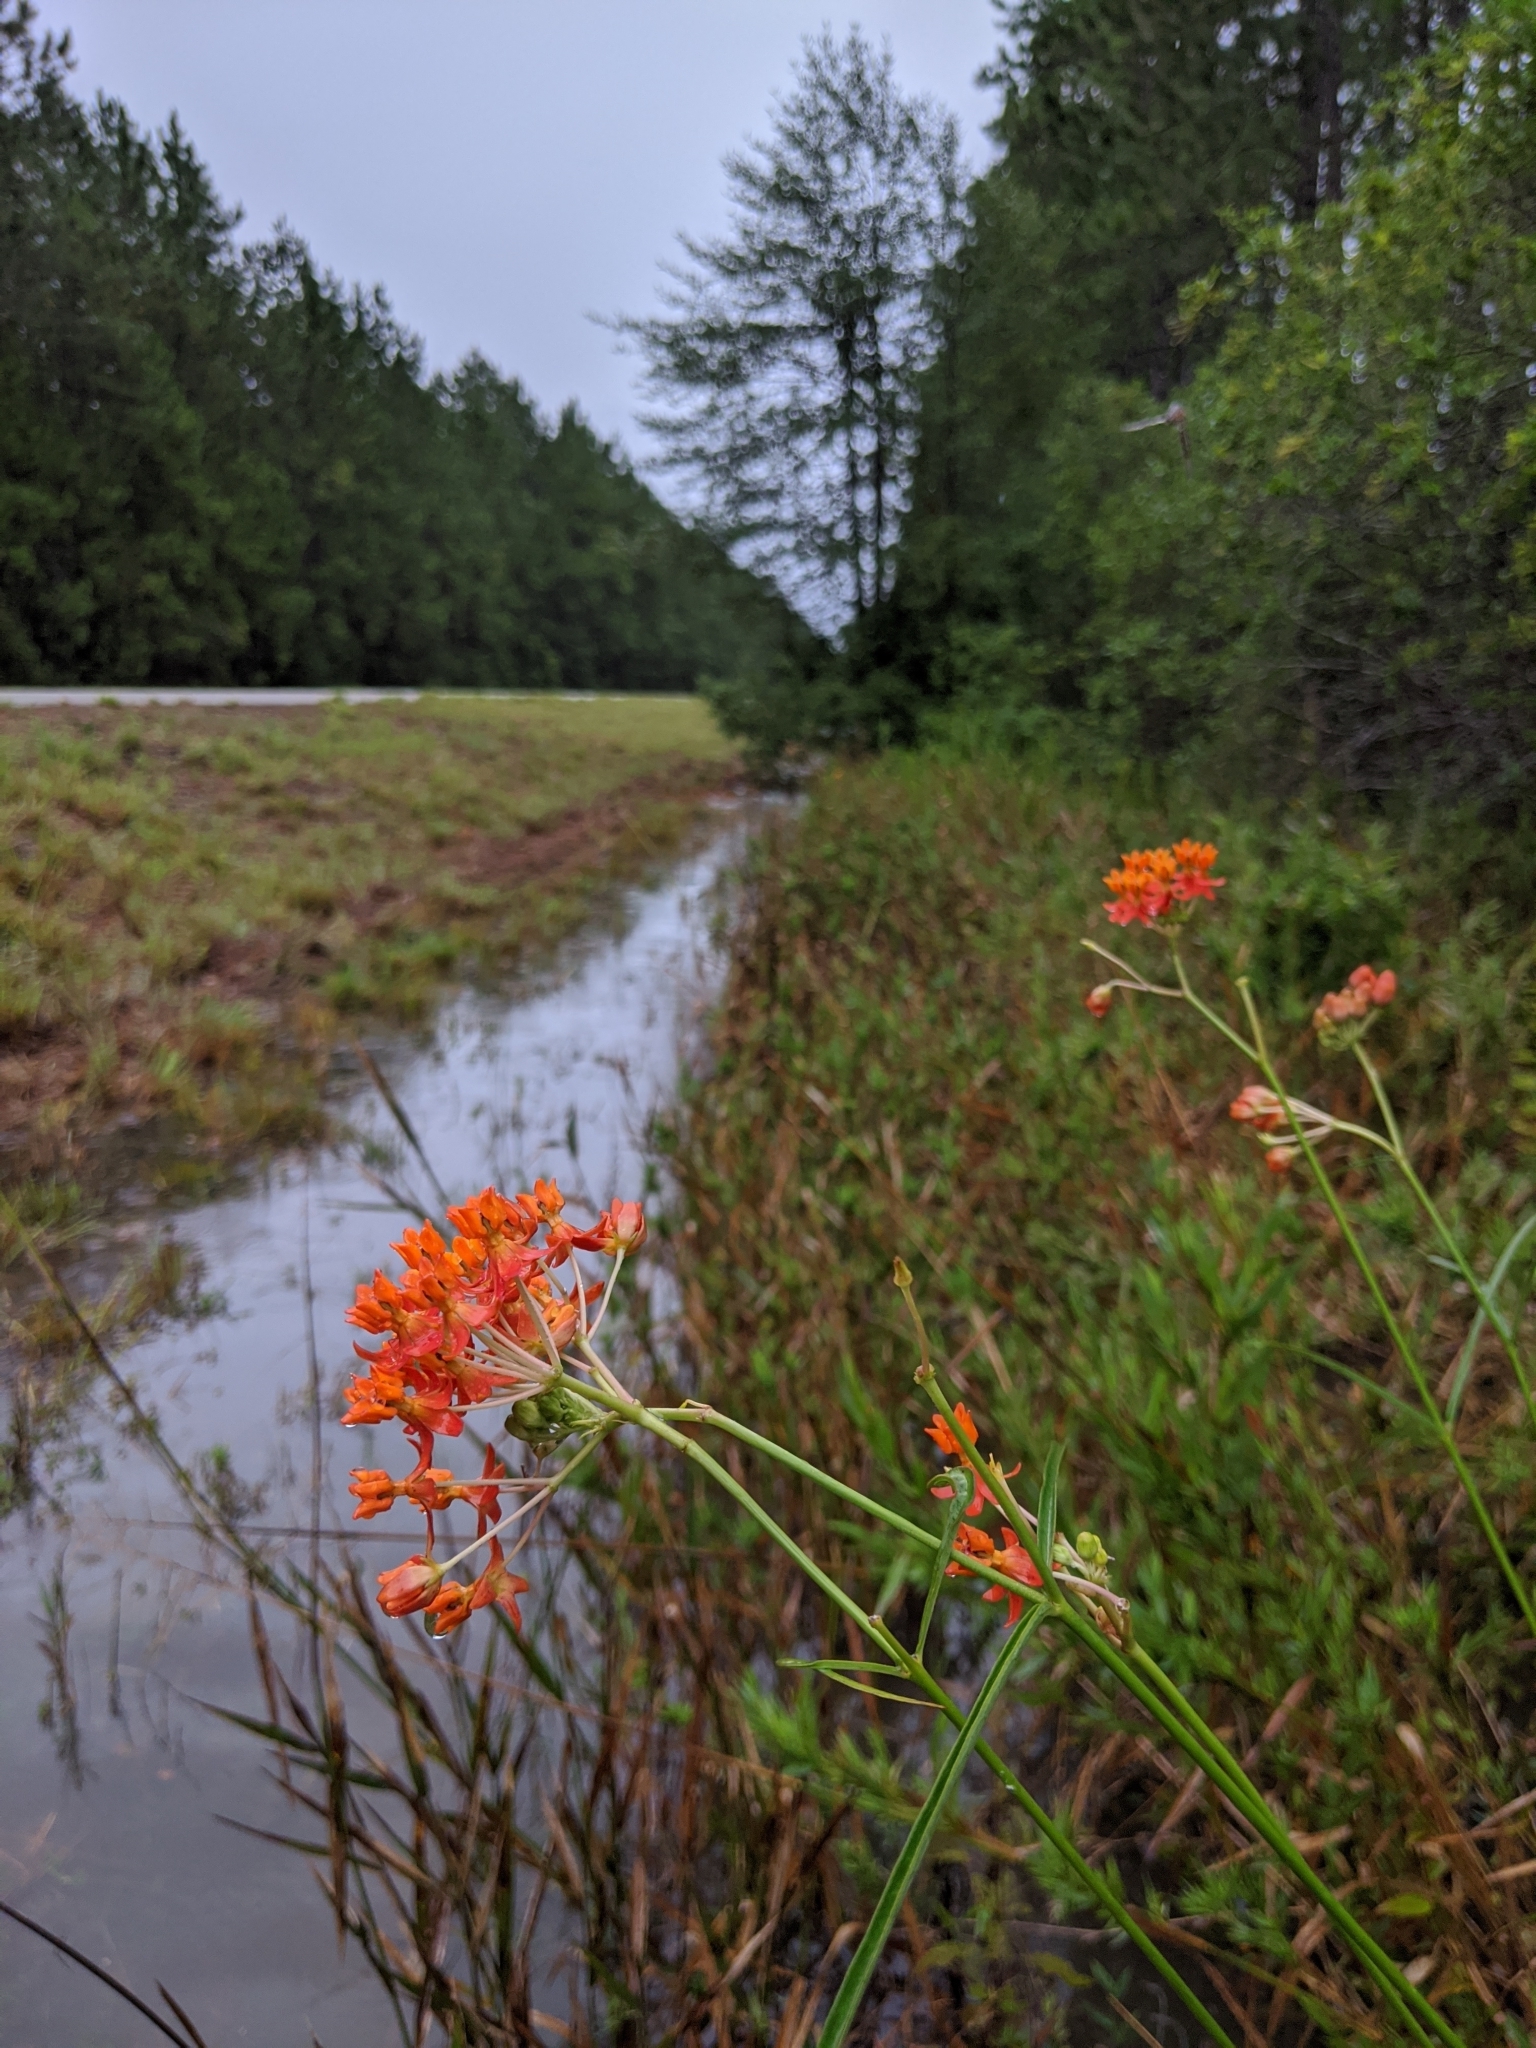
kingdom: Plantae
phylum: Tracheophyta
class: Magnoliopsida
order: Gentianales
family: Apocynaceae
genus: Asclepias
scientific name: Asclepias lanceolata
